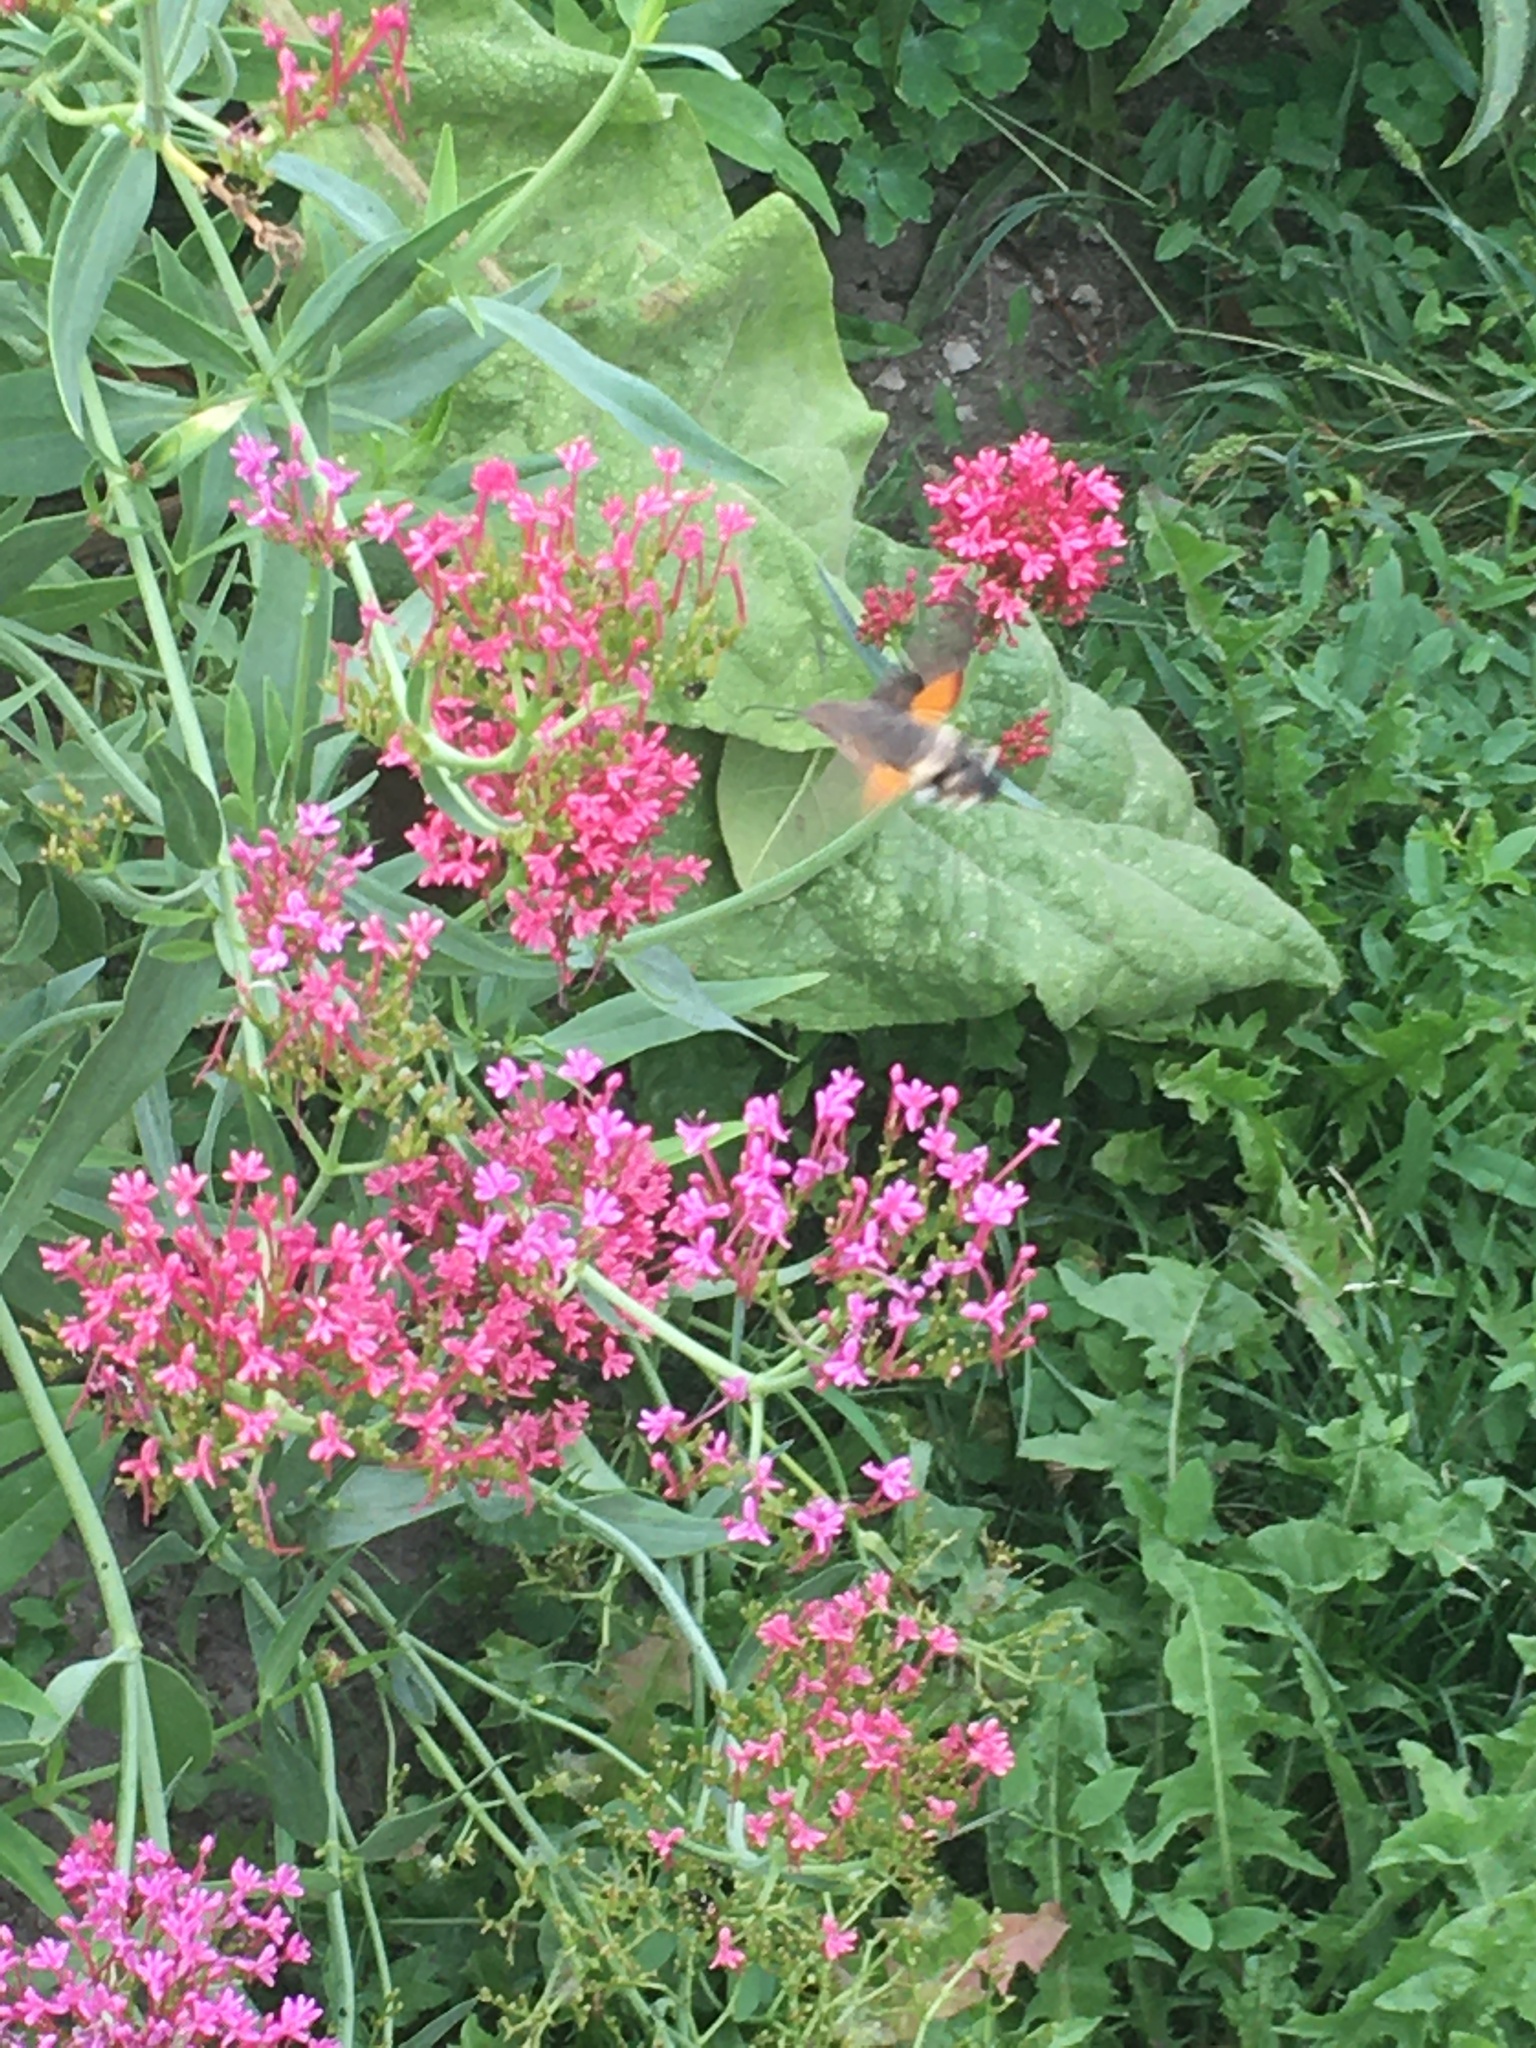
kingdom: Animalia
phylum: Arthropoda
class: Insecta
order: Lepidoptera
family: Sphingidae
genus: Macroglossum
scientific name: Macroglossum stellatarum
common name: Humming-bird hawk-moth
